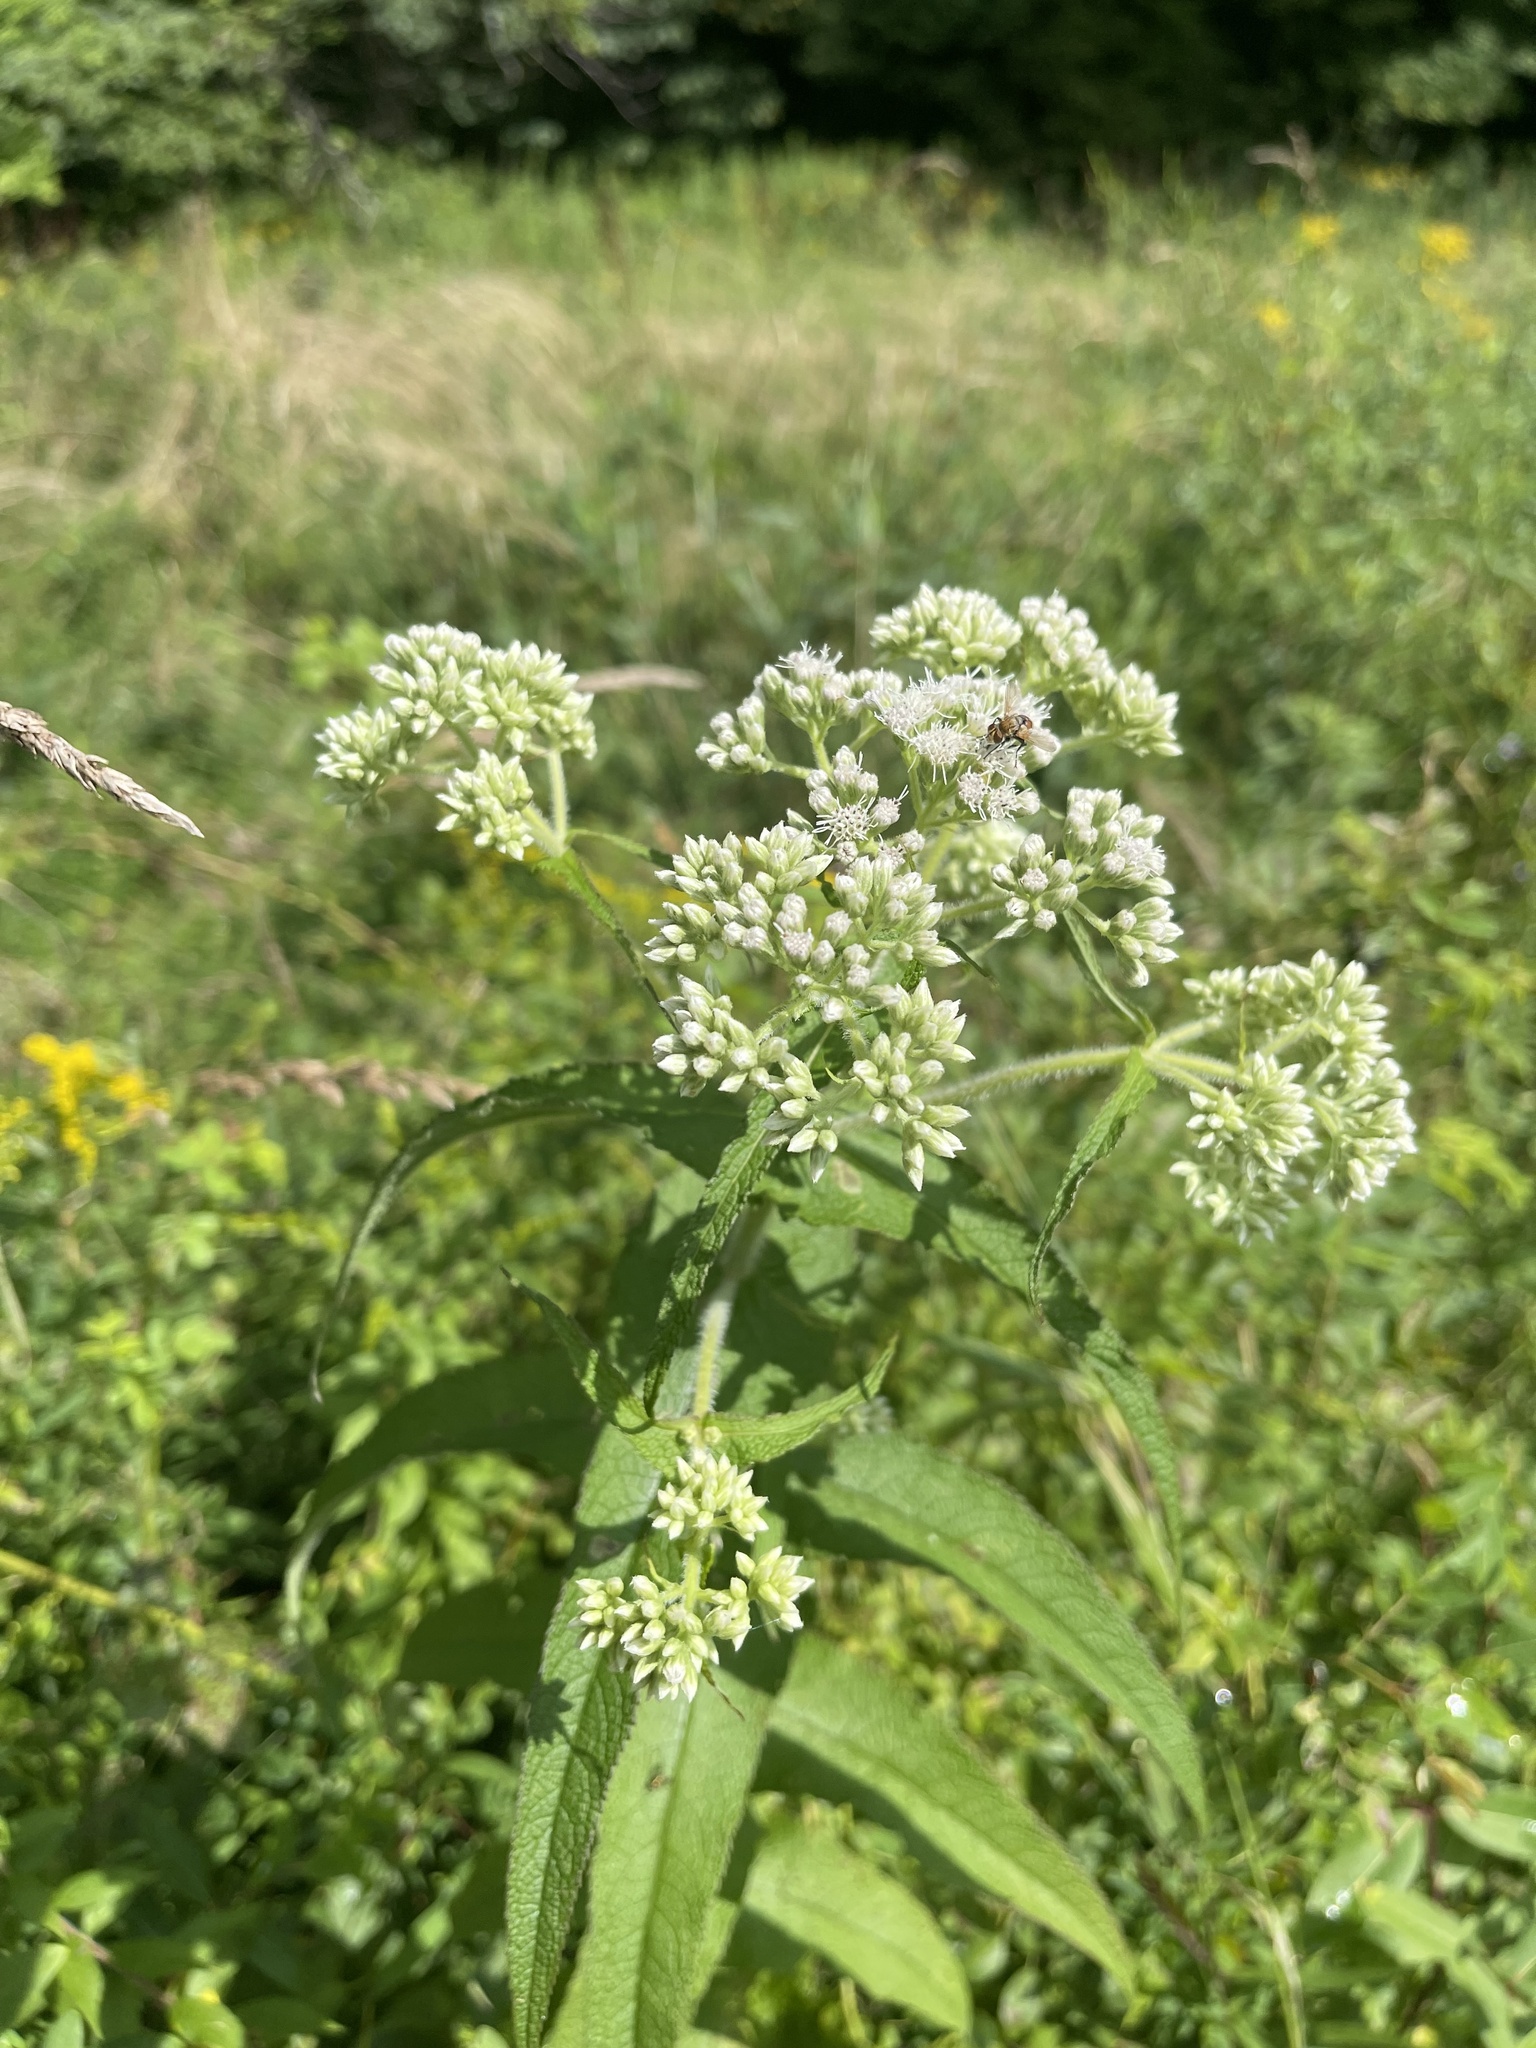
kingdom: Plantae
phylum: Tracheophyta
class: Magnoliopsida
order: Asterales
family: Asteraceae
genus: Eupatorium
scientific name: Eupatorium perfoliatum
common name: Boneset
